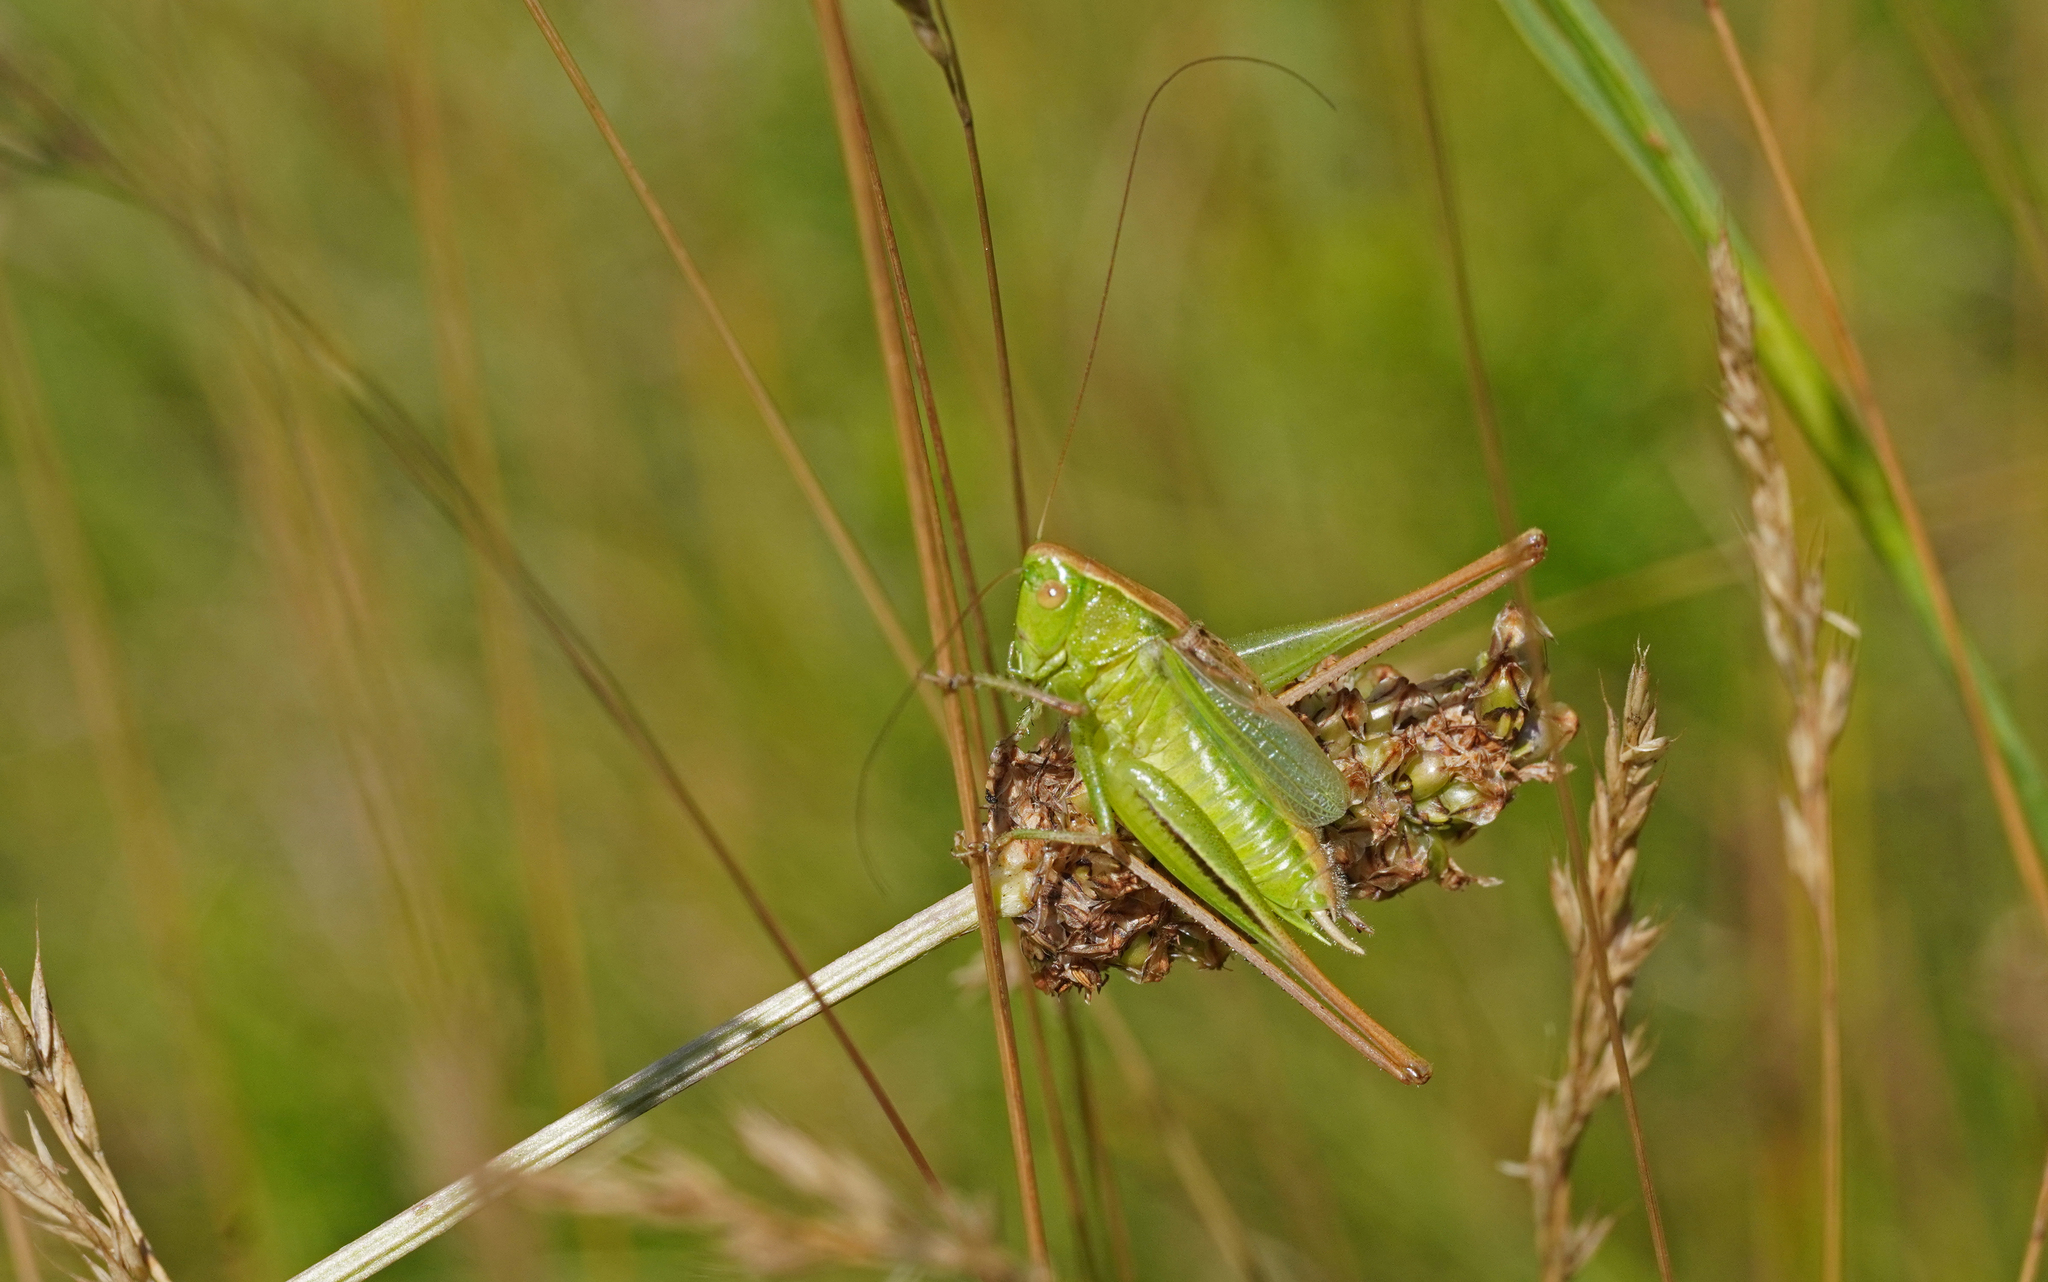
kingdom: Animalia
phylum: Arthropoda
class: Insecta
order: Orthoptera
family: Tettigoniidae
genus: Bicolorana
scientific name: Bicolorana bicolor
